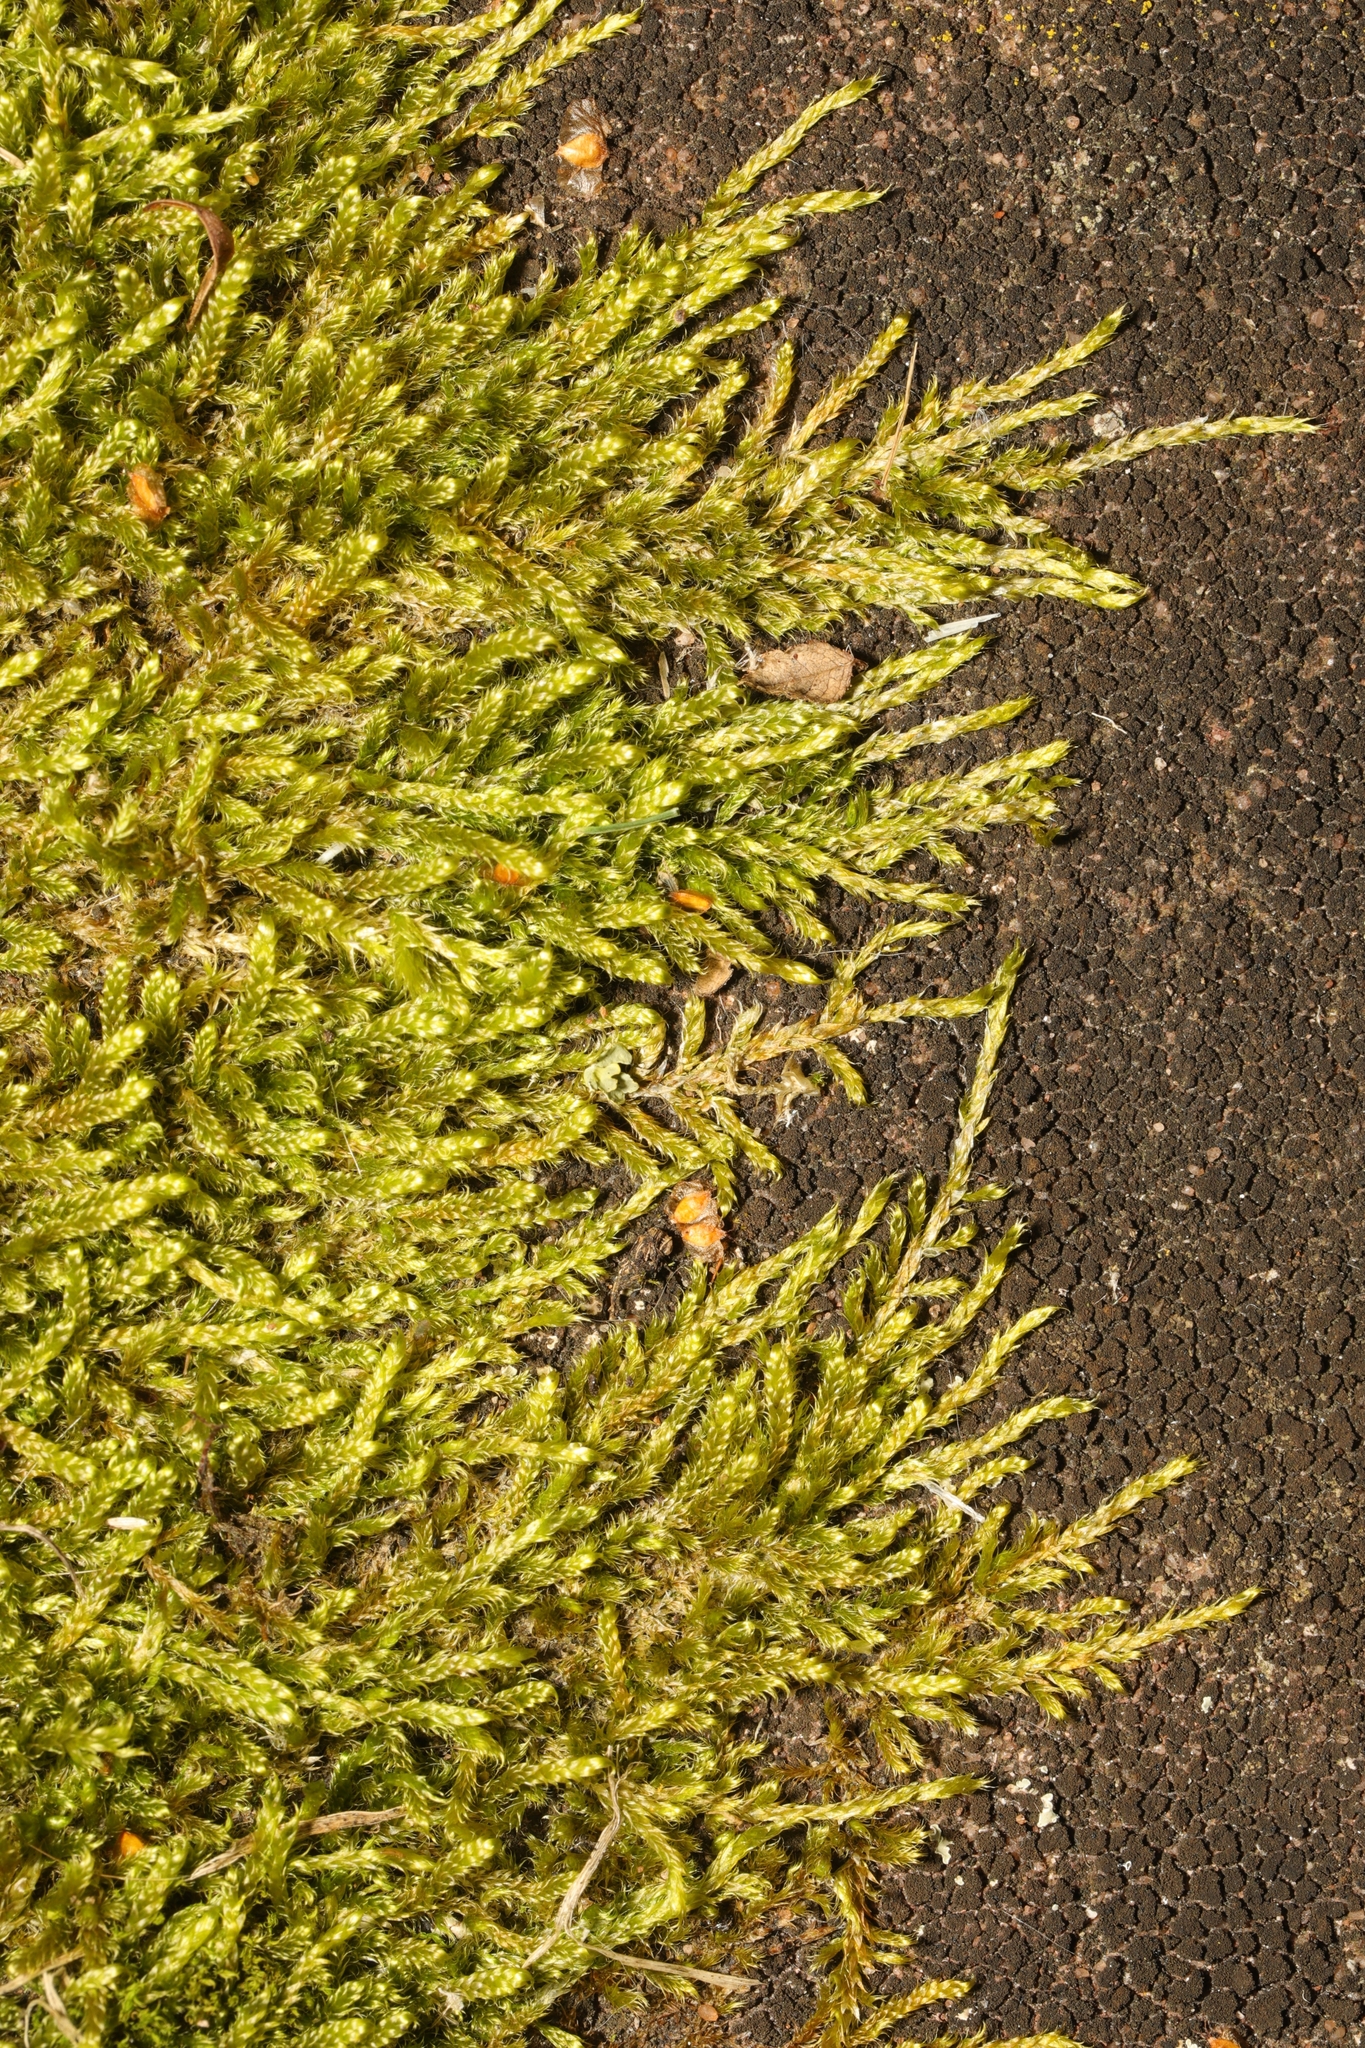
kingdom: Plantae
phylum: Bryophyta
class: Bryopsida
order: Hypnales
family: Hypnaceae
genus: Hypnum
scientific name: Hypnum cupressiforme
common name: Cypress-leaved plait-moss
